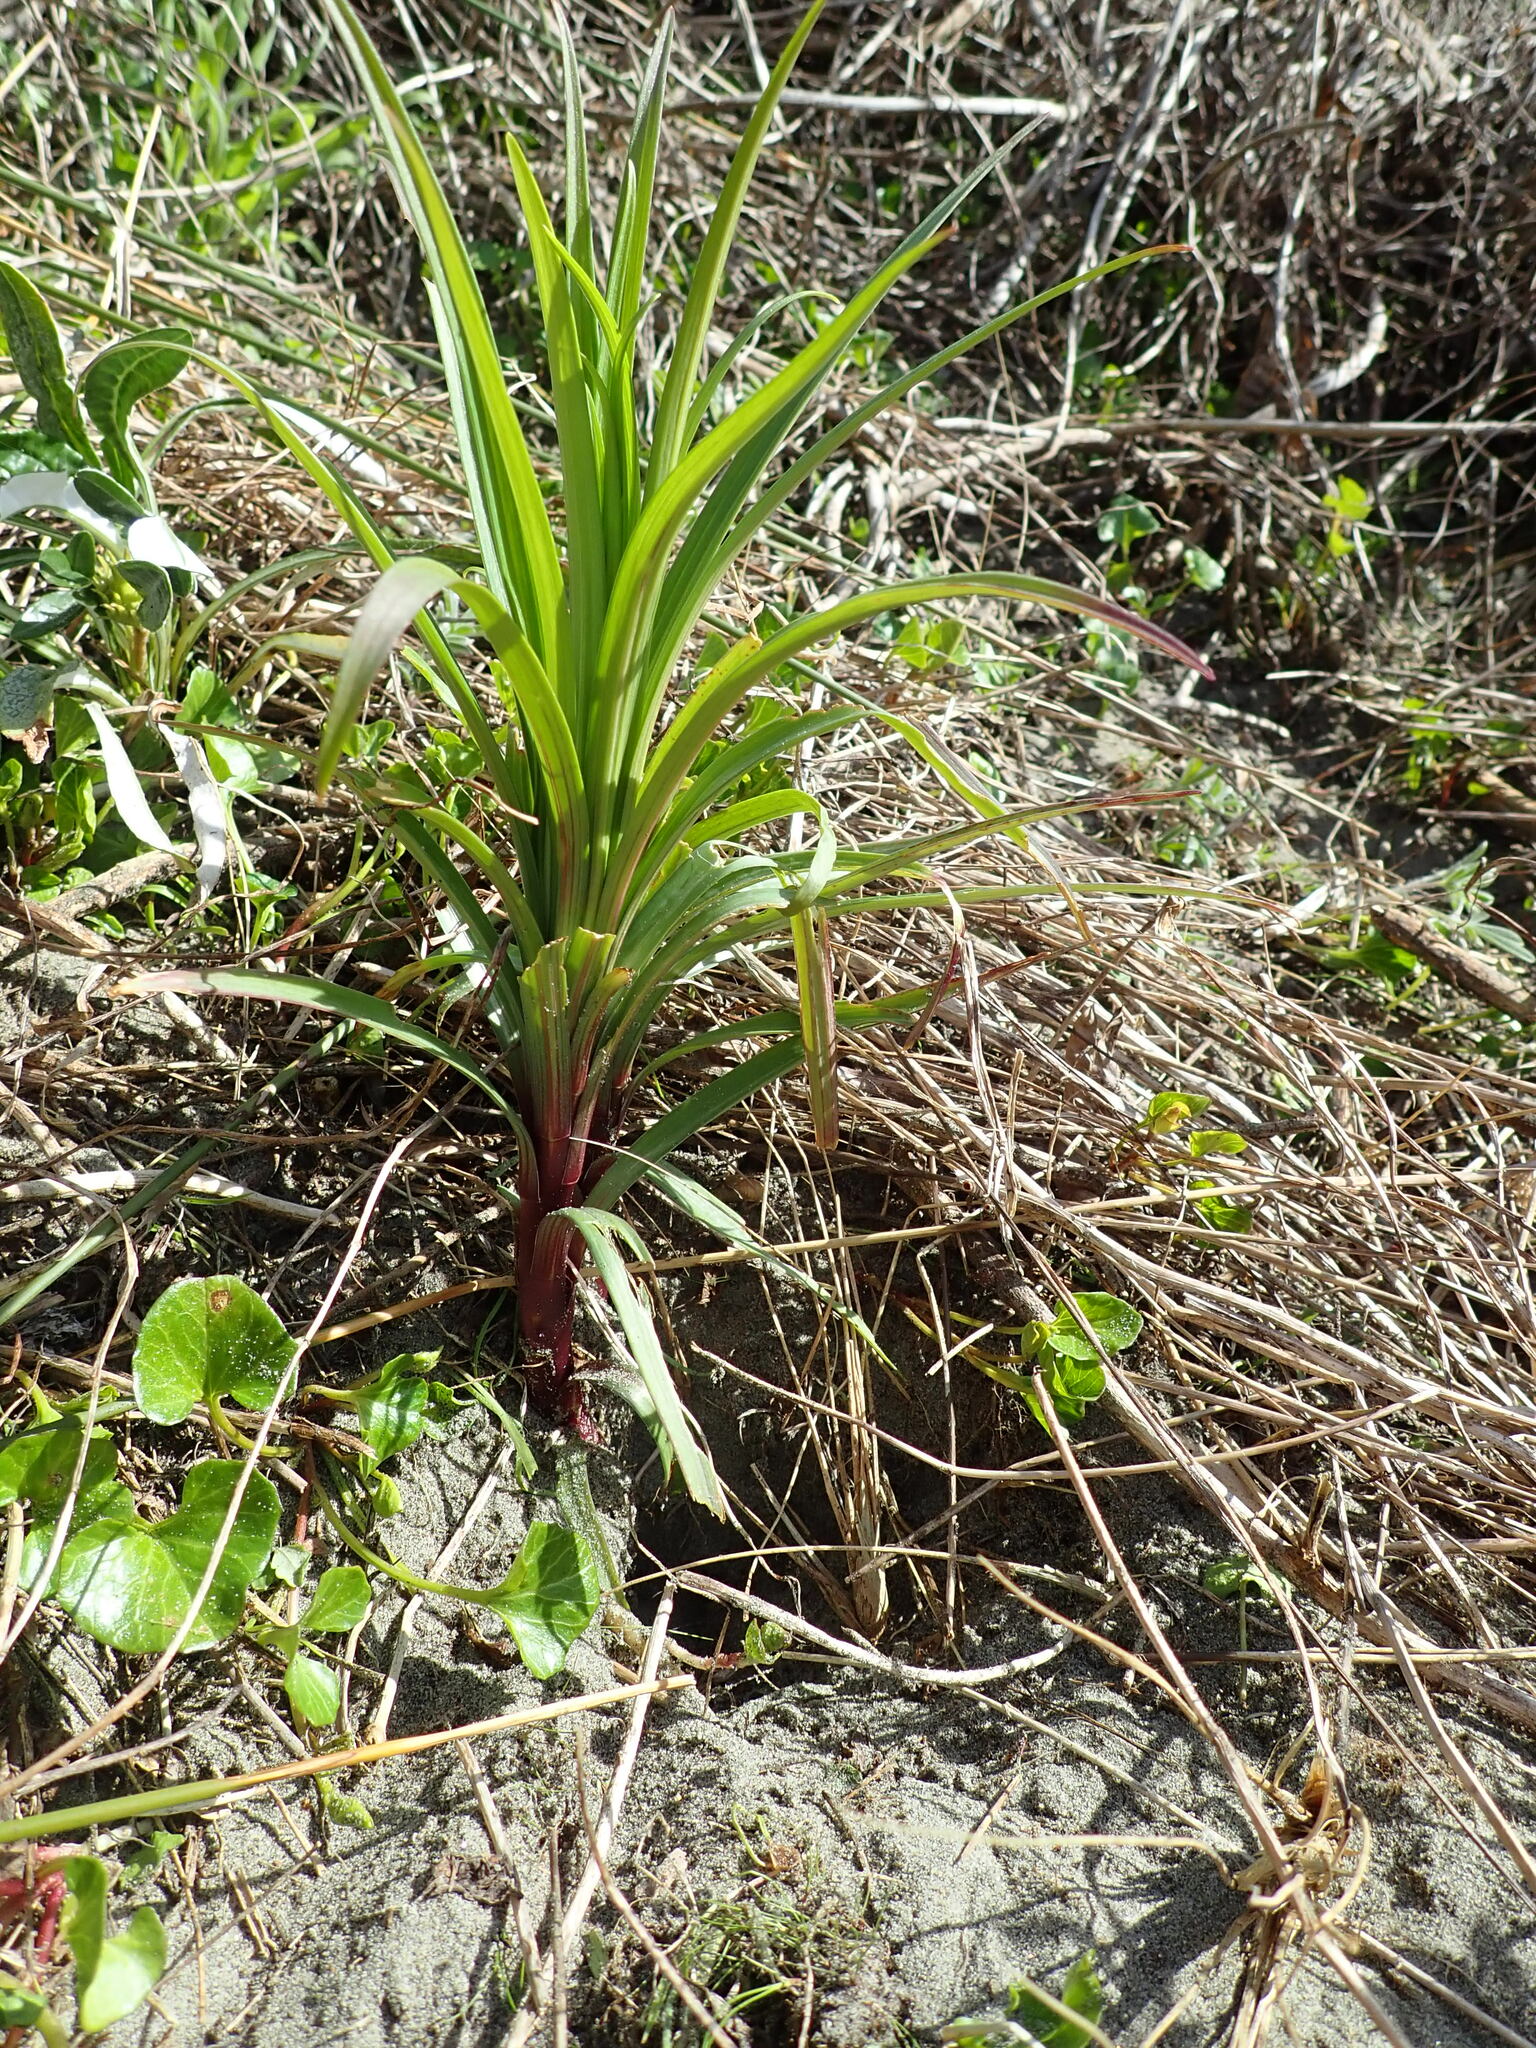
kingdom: Plantae
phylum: Tracheophyta
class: Liliopsida
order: Liliales
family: Liliaceae
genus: Lilium
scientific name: Lilium formosanum
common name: Formosa lily
